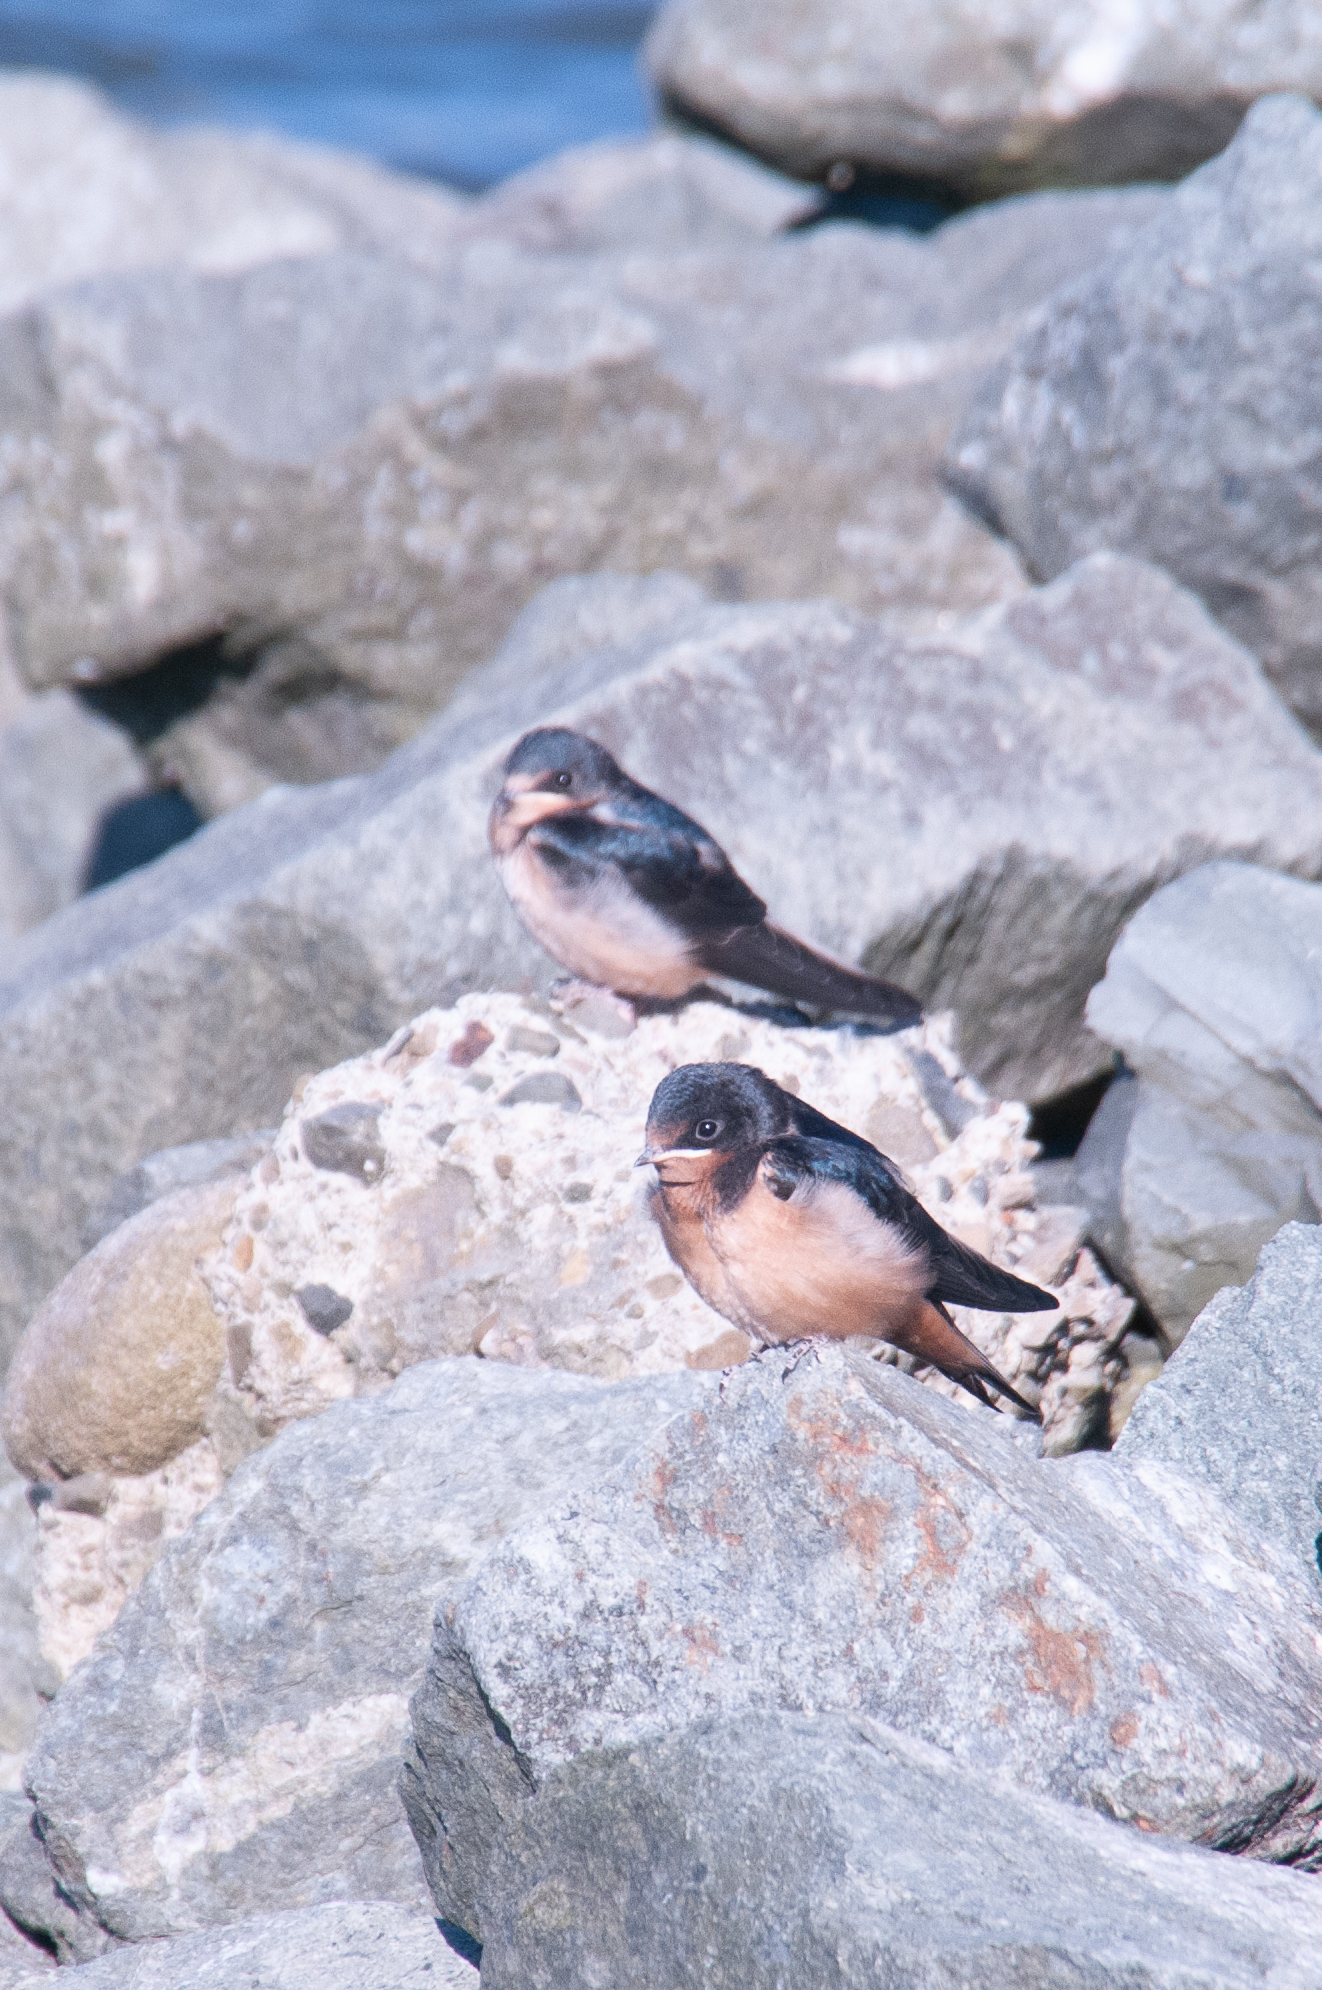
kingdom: Animalia
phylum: Chordata
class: Aves
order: Passeriformes
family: Hirundinidae
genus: Hirundo
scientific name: Hirundo rustica
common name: Barn swallow
